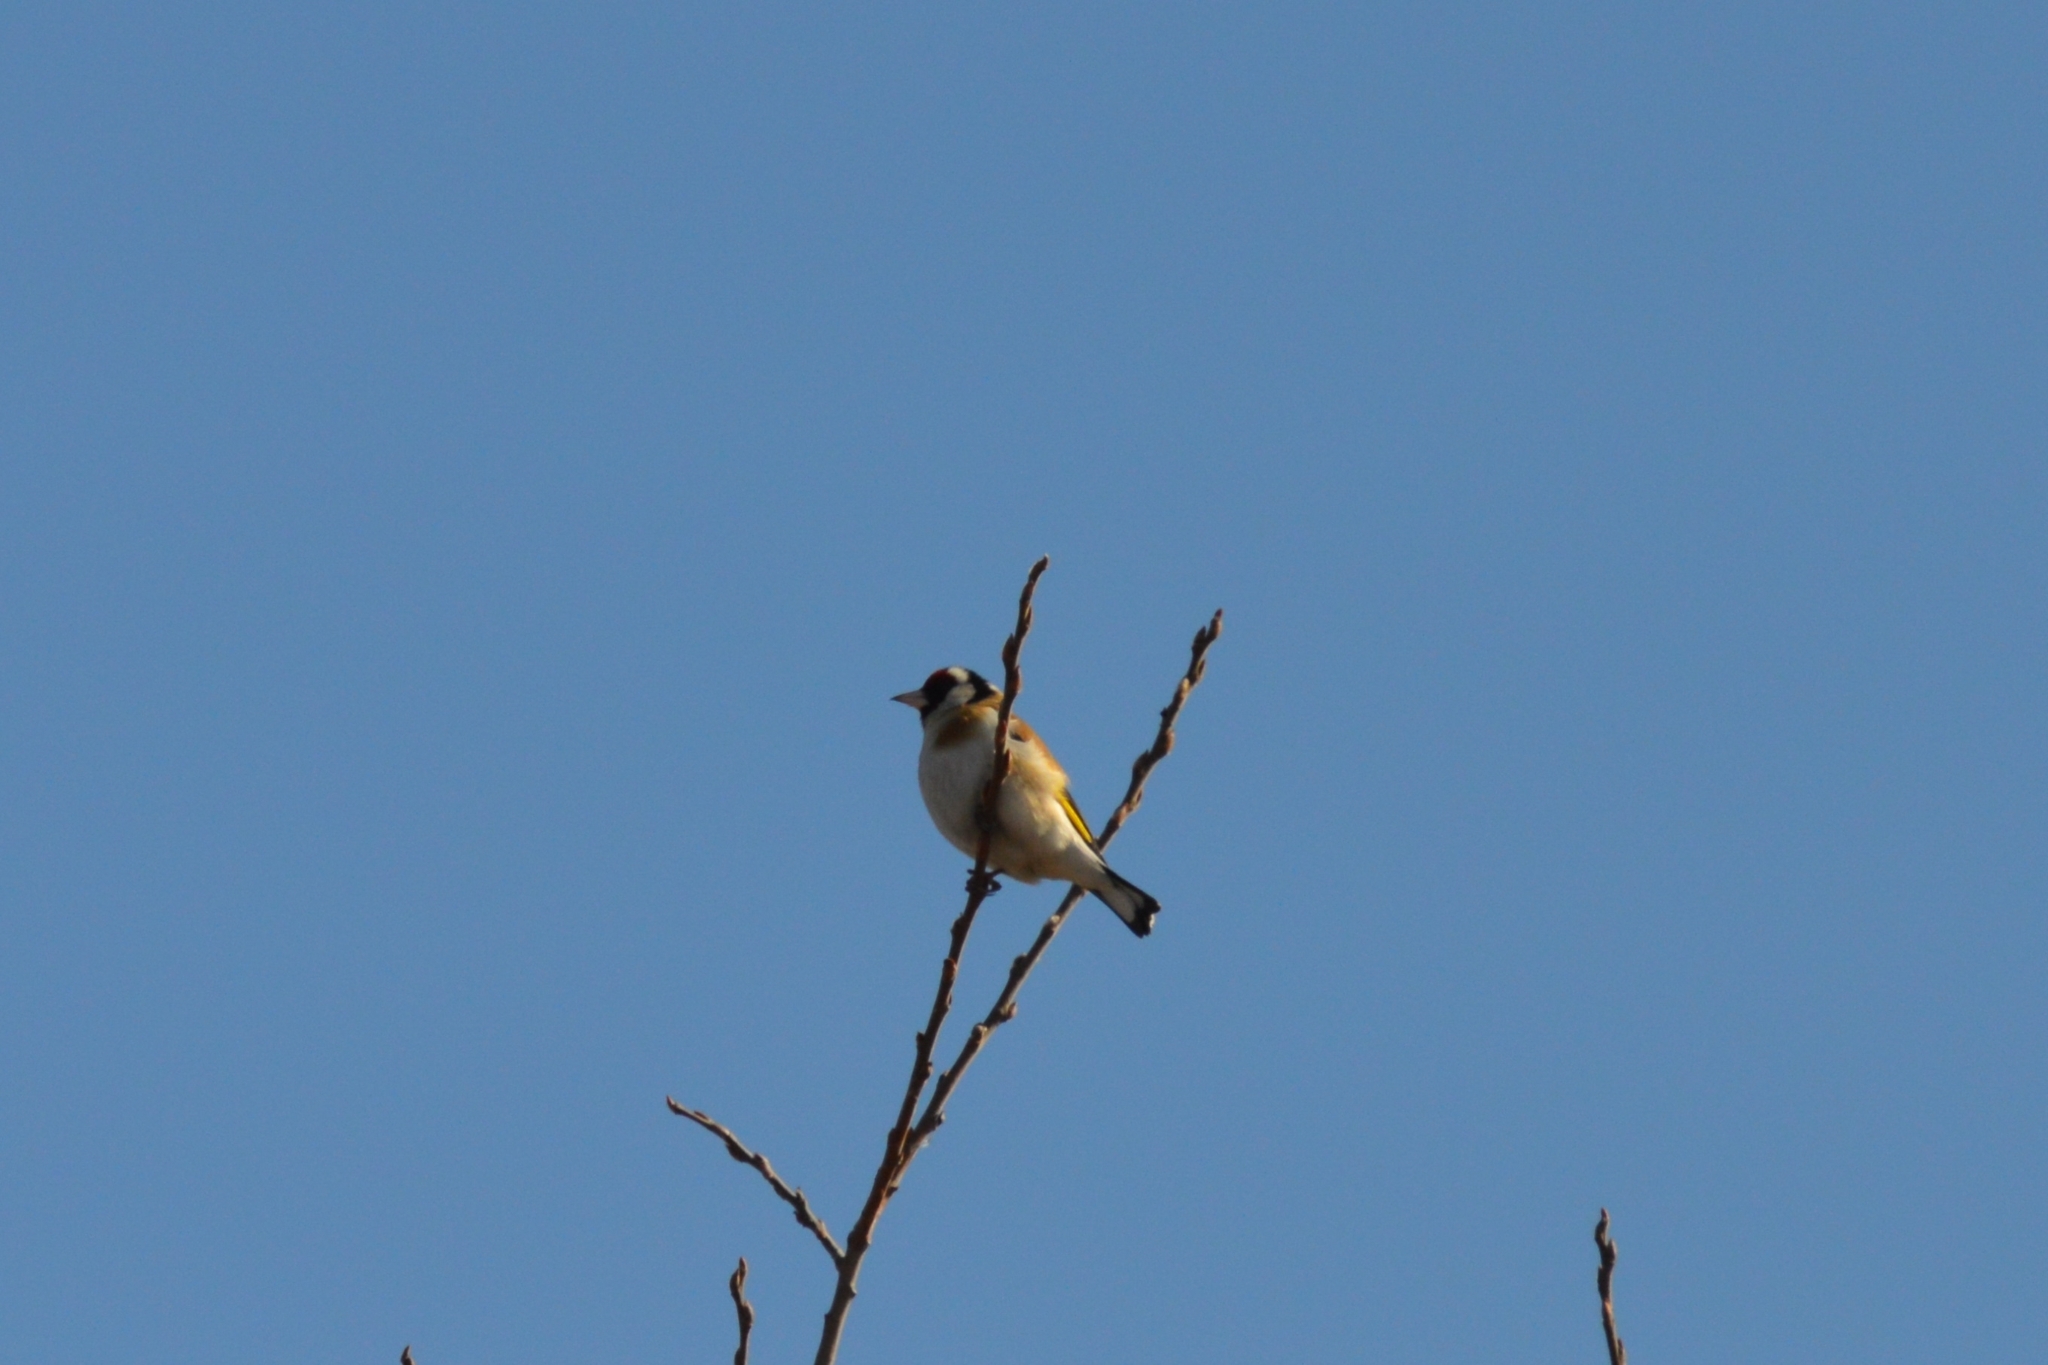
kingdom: Animalia
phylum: Chordata
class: Aves
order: Passeriformes
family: Fringillidae
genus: Carduelis
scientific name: Carduelis carduelis
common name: European goldfinch
